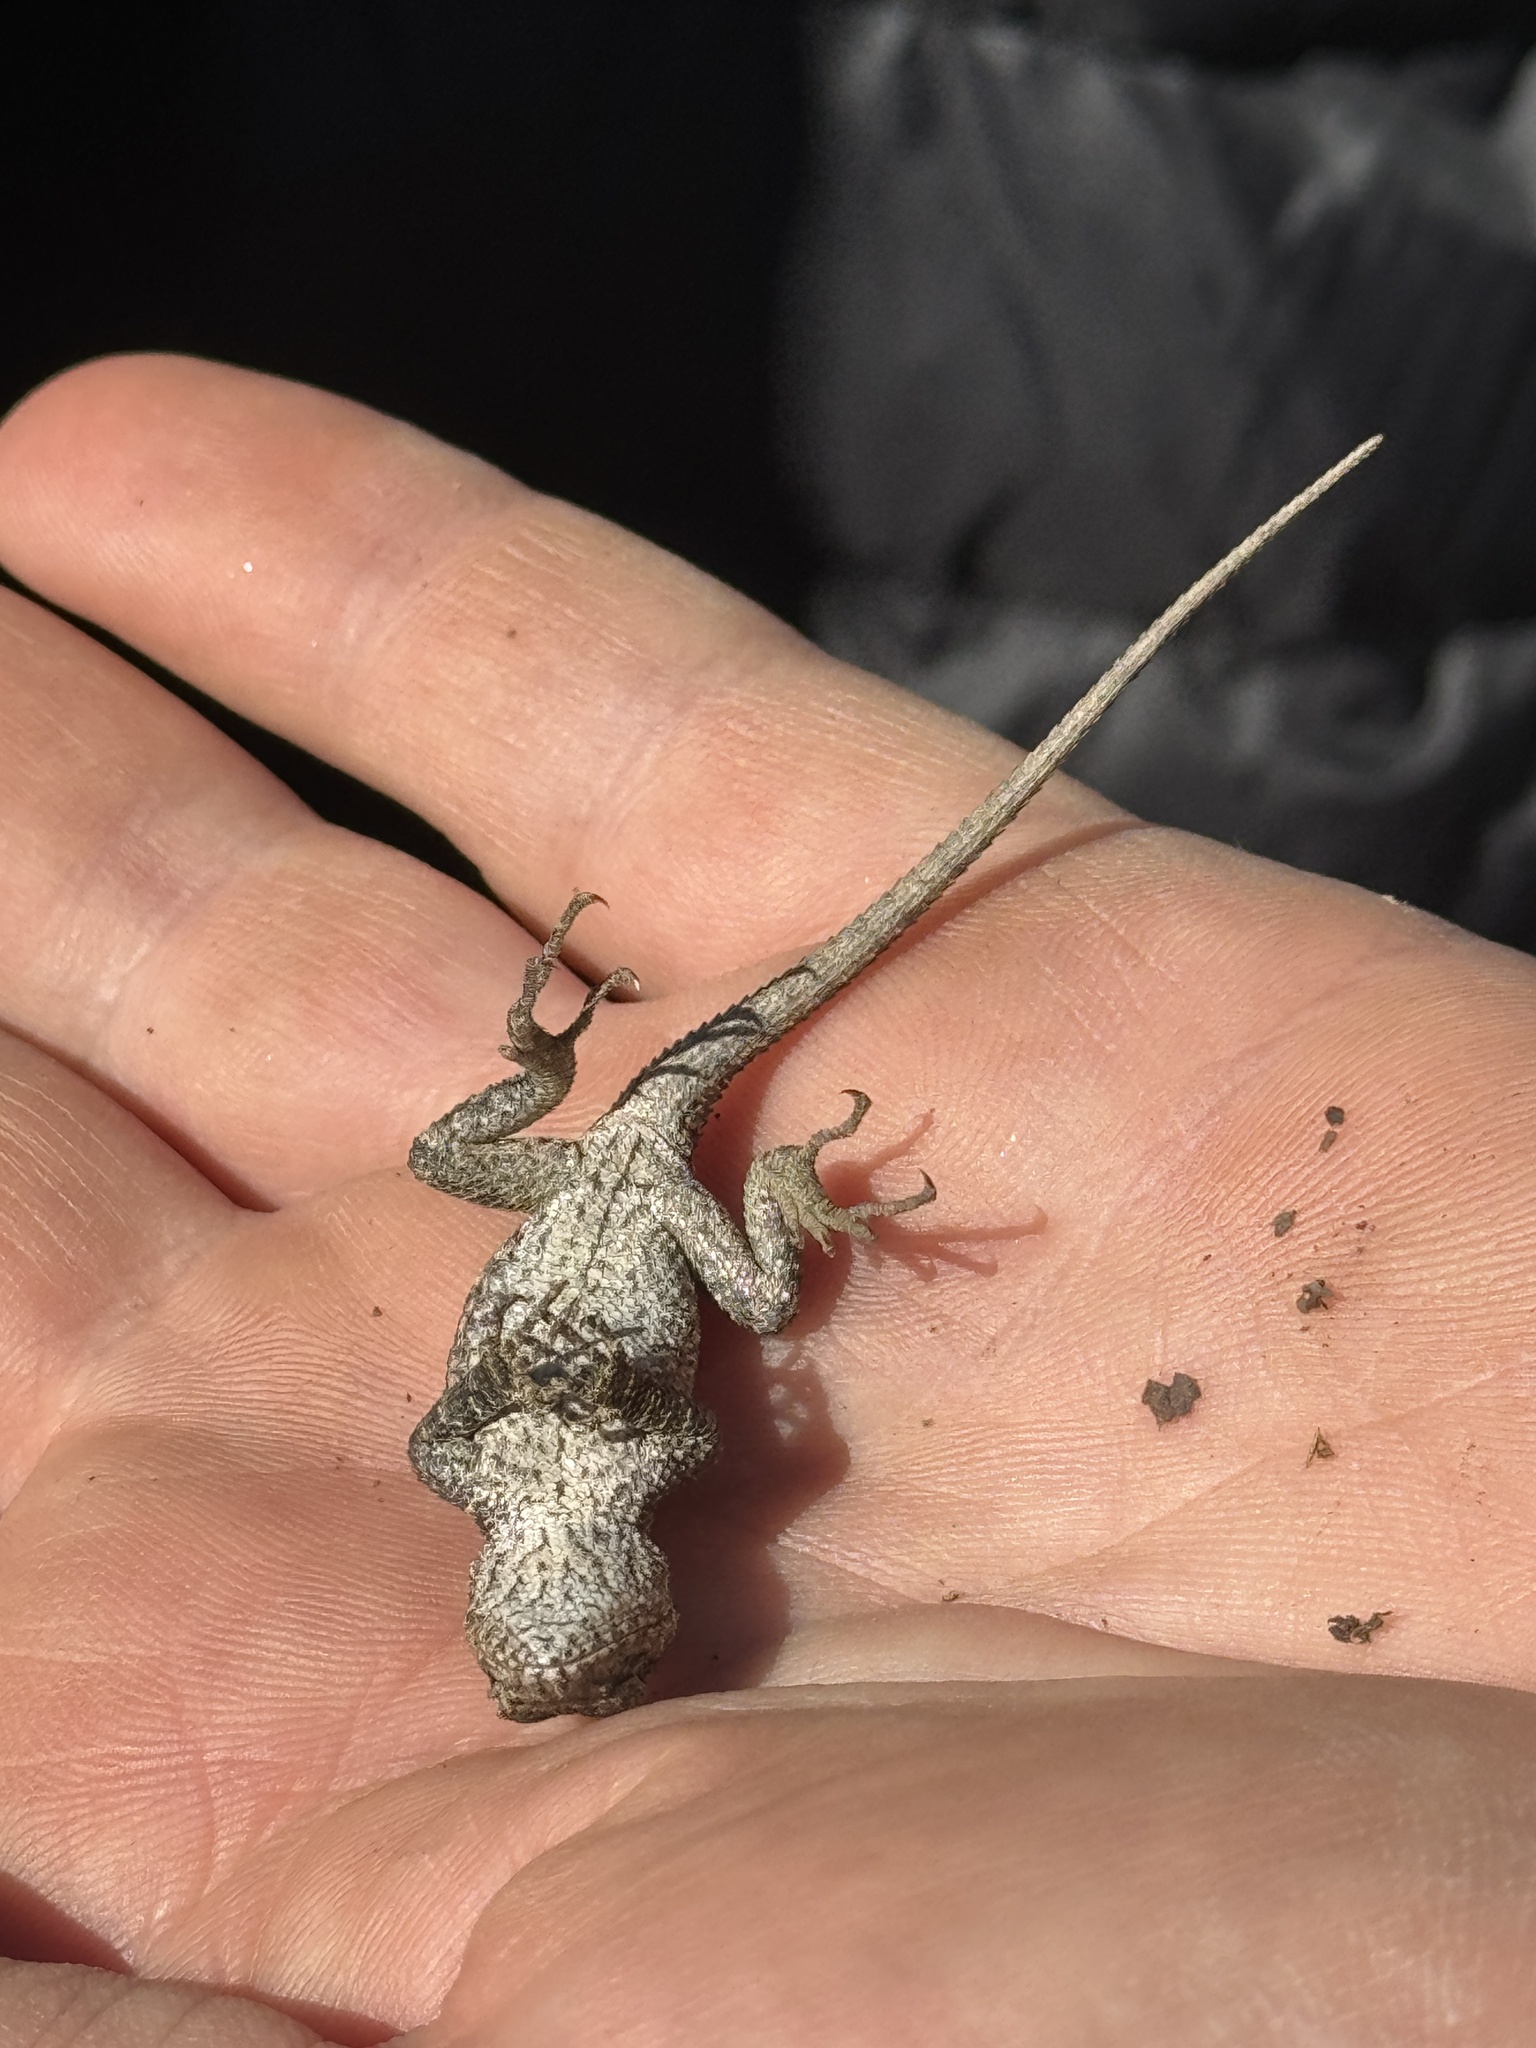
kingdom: Animalia
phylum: Chordata
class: Squamata
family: Phrynosomatidae
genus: Sceloporus
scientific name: Sceloporus undulatus
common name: Eastern fence lizard
